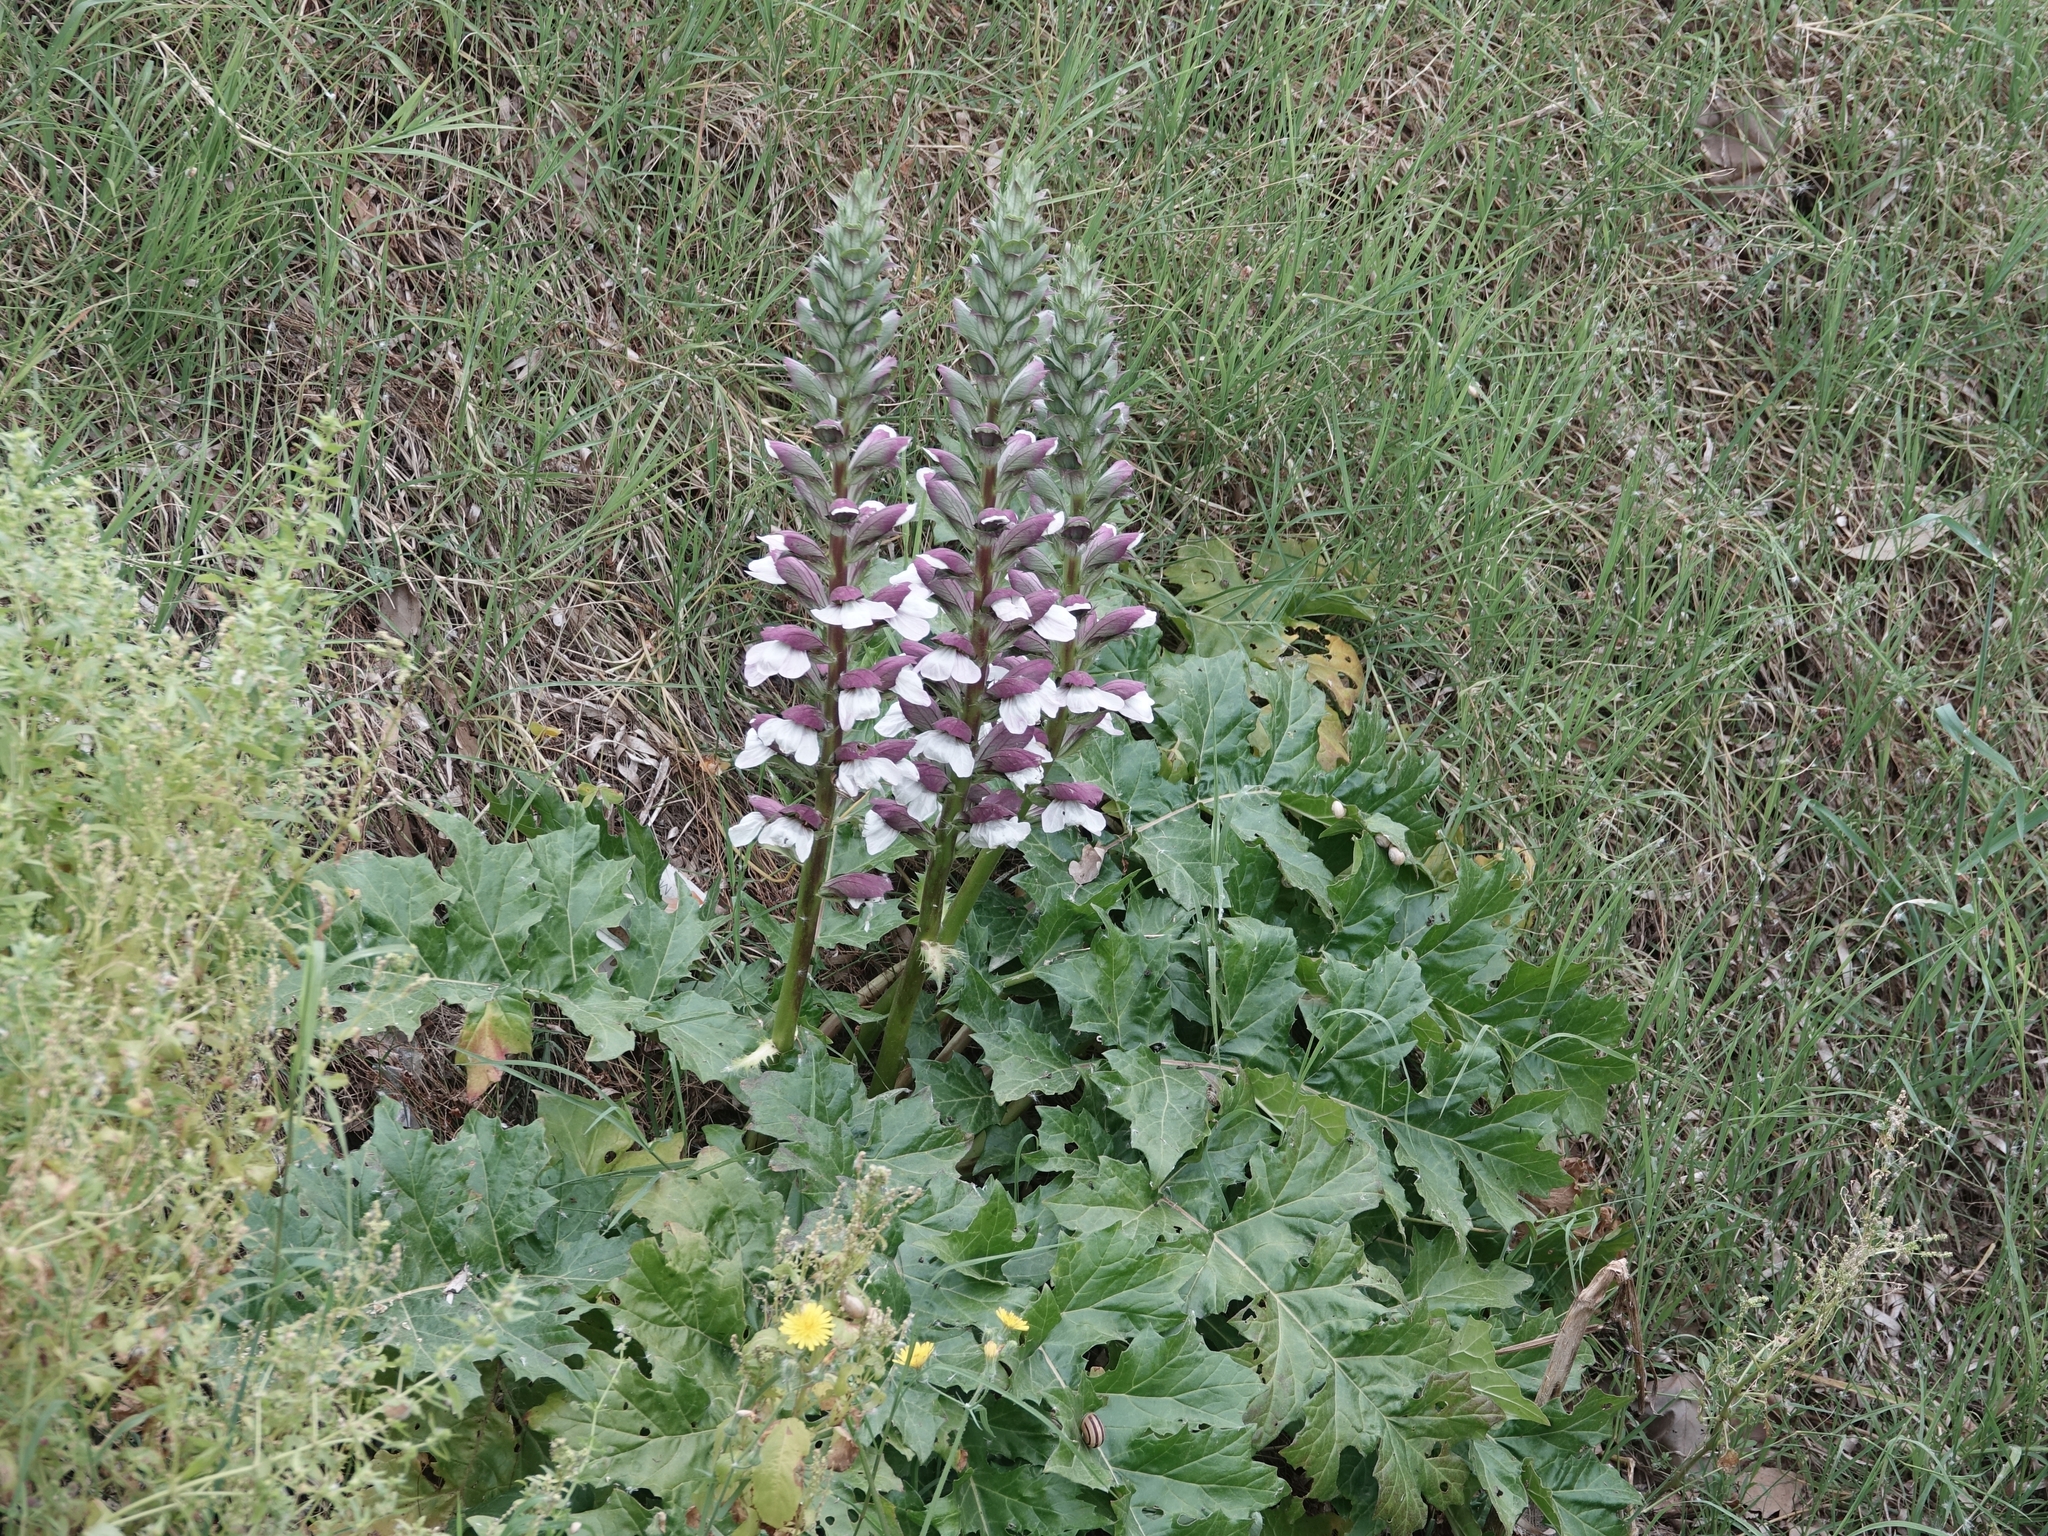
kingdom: Plantae
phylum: Tracheophyta
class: Magnoliopsida
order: Lamiales
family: Acanthaceae
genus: Acanthus
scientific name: Acanthus mollis
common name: Bear's-breech
